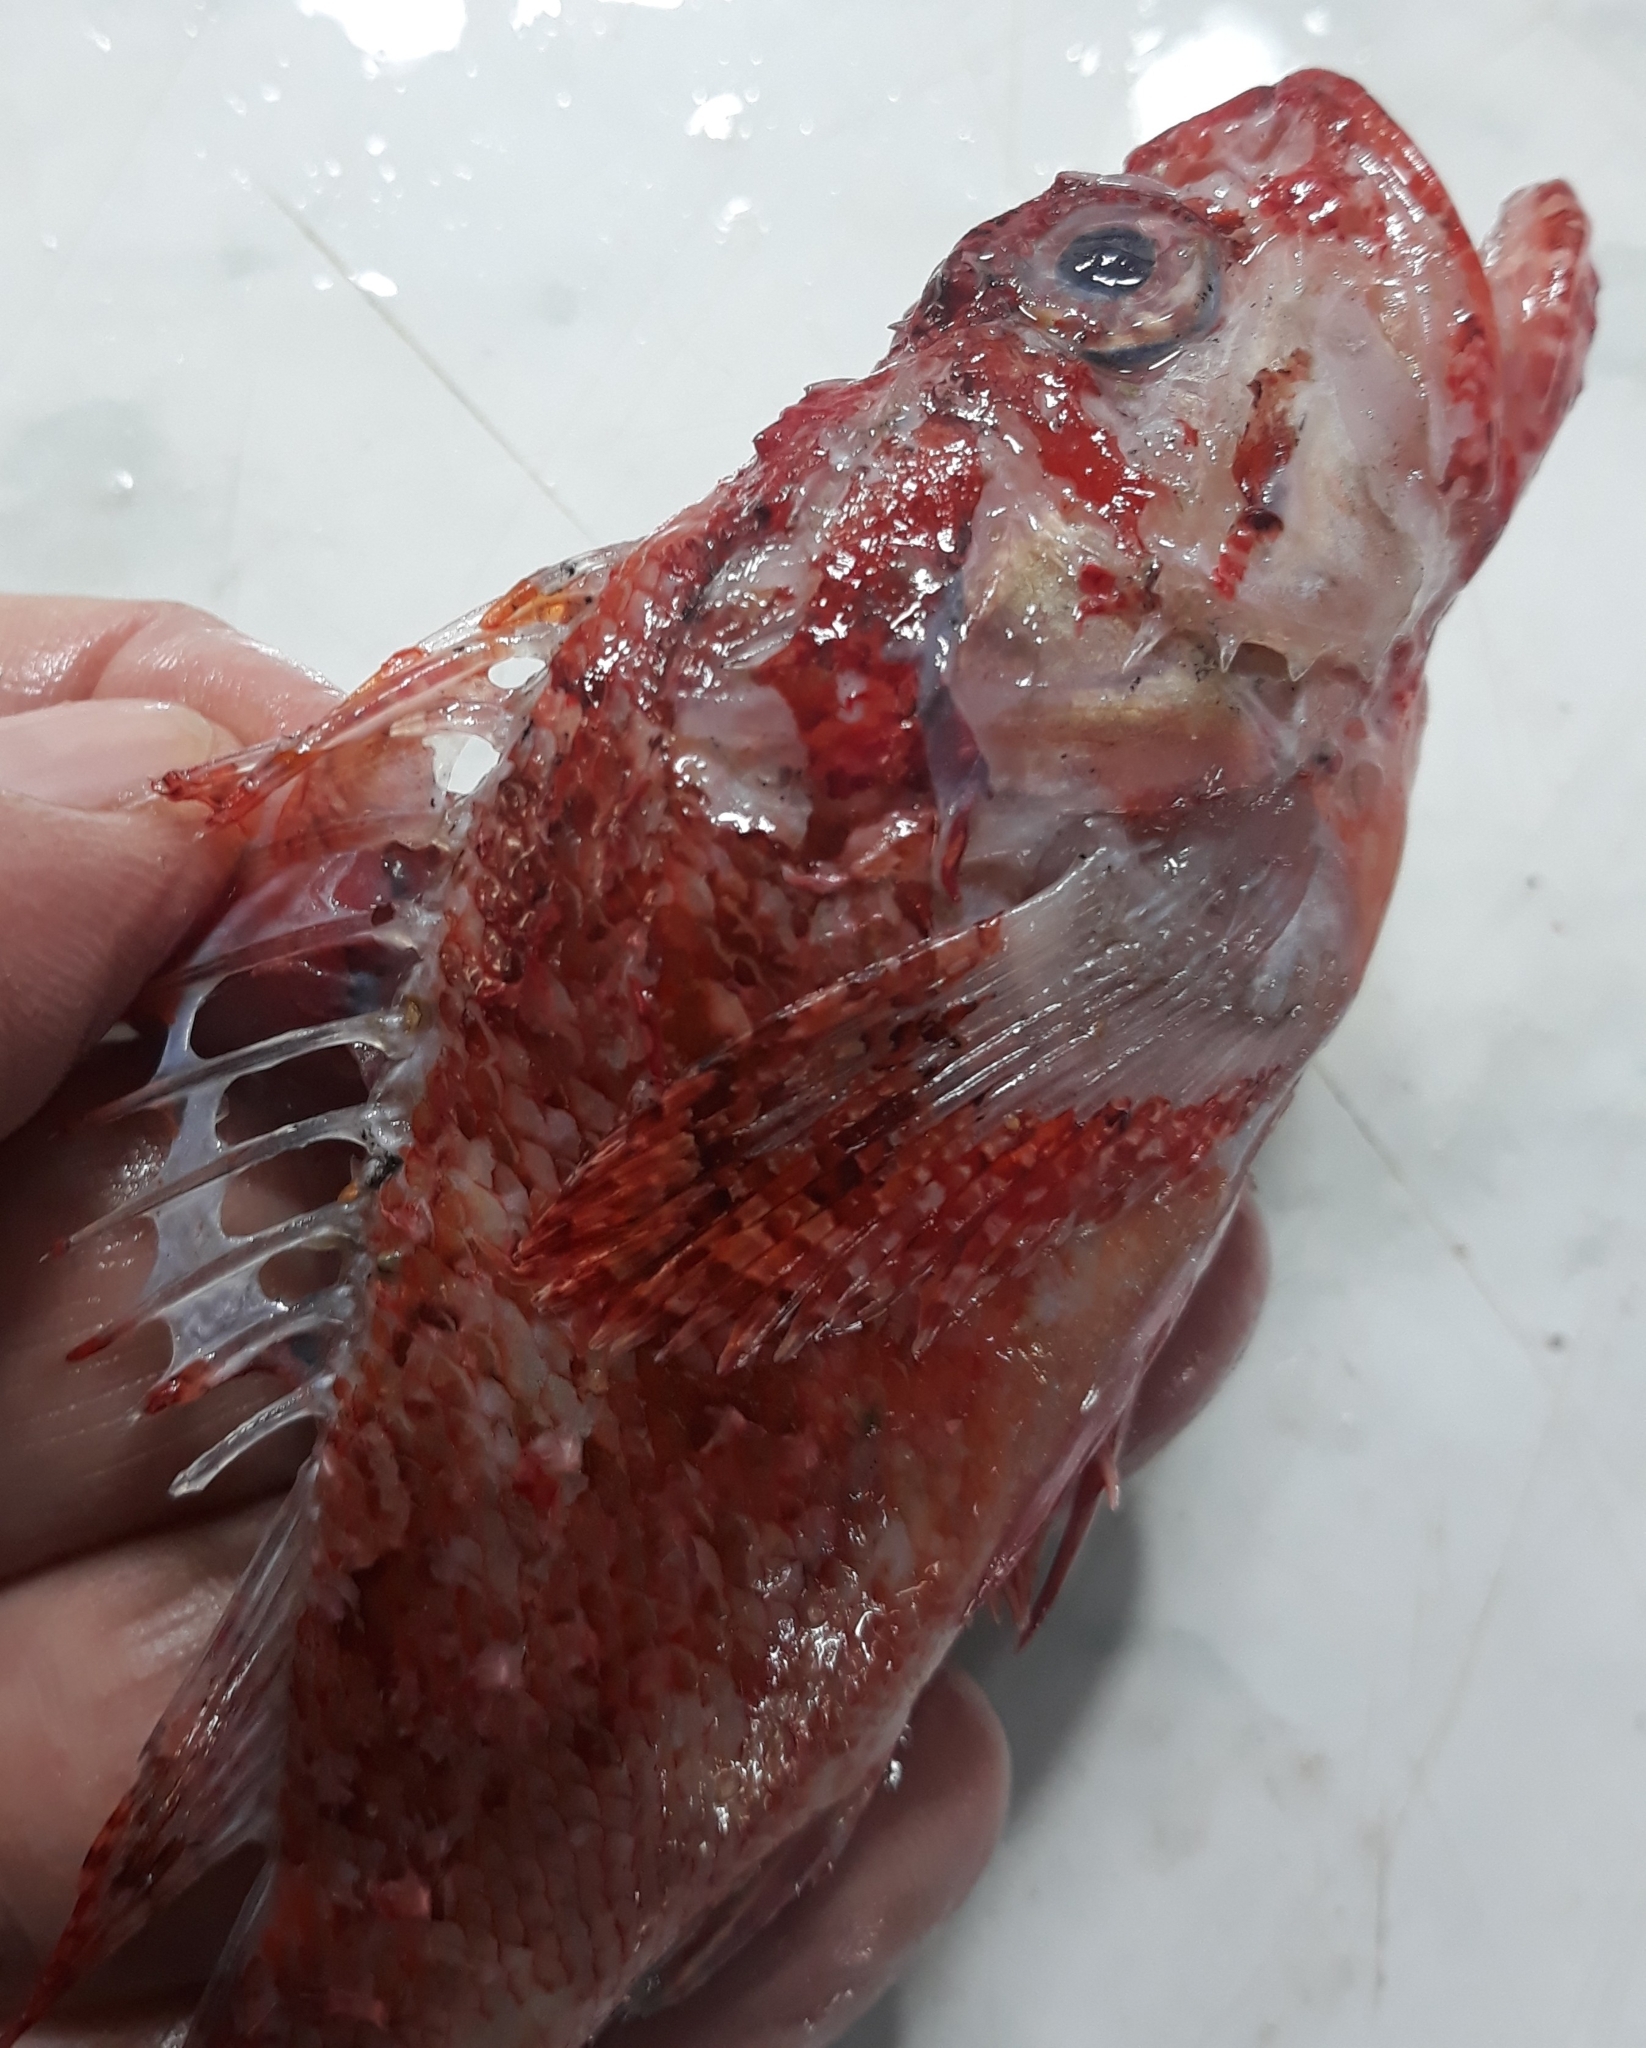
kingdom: Animalia
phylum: Chordata
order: Scorpaeniformes
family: Scorpaenidae
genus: Scorpaena
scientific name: Scorpaena elongata
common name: Slender rockfish
